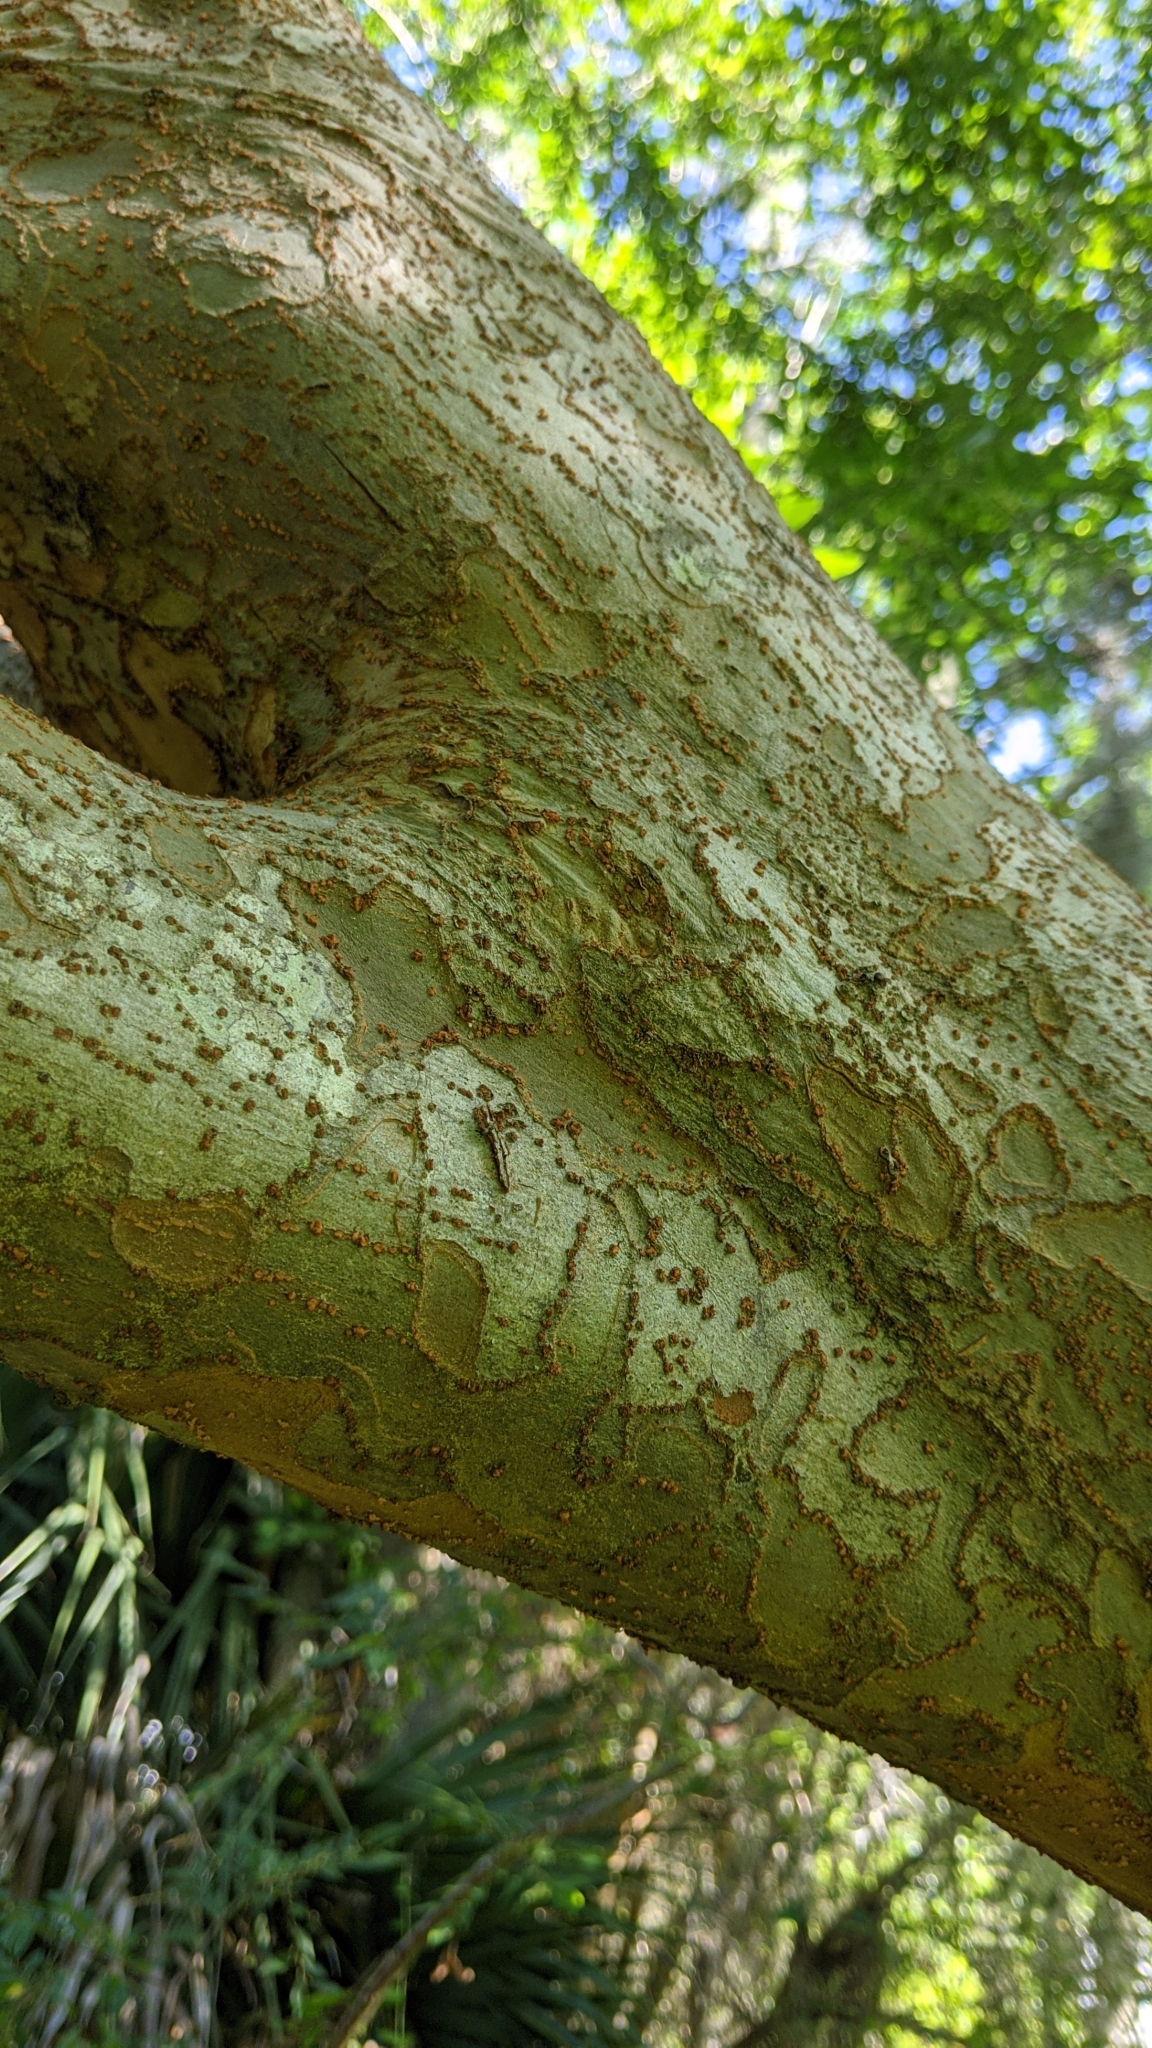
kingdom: Plantae
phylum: Tracheophyta
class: Magnoliopsida
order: Rosales
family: Ulmaceae
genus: Ulmus
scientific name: Ulmus parvifolia
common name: Chinese elm
